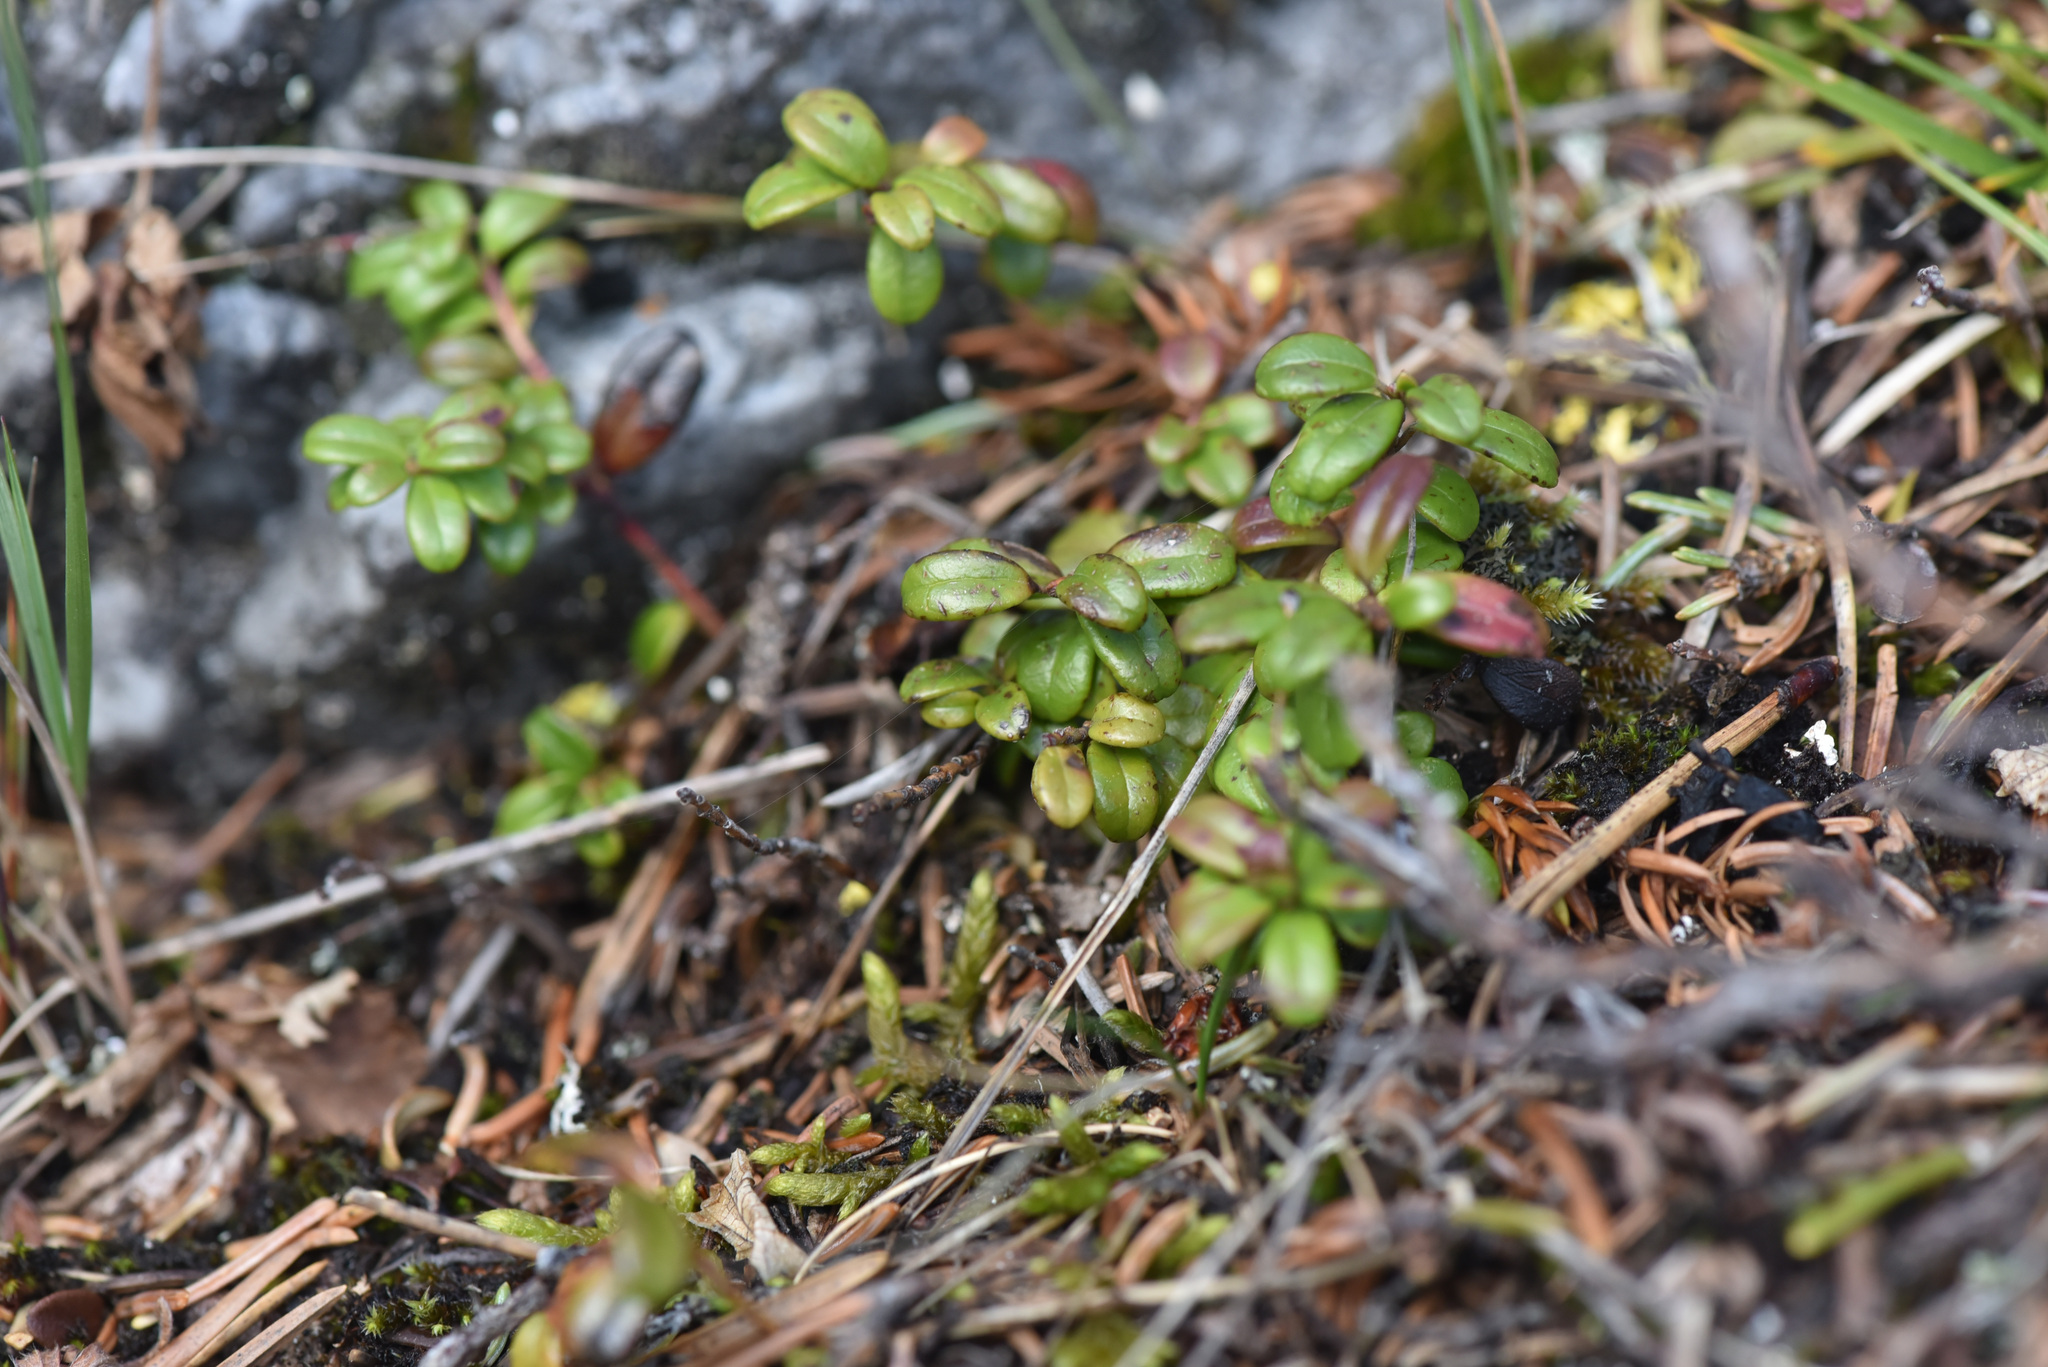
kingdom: Plantae
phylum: Tracheophyta
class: Magnoliopsida
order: Ericales
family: Ericaceae
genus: Vaccinium
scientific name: Vaccinium vitis-idaea
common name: Cowberry
